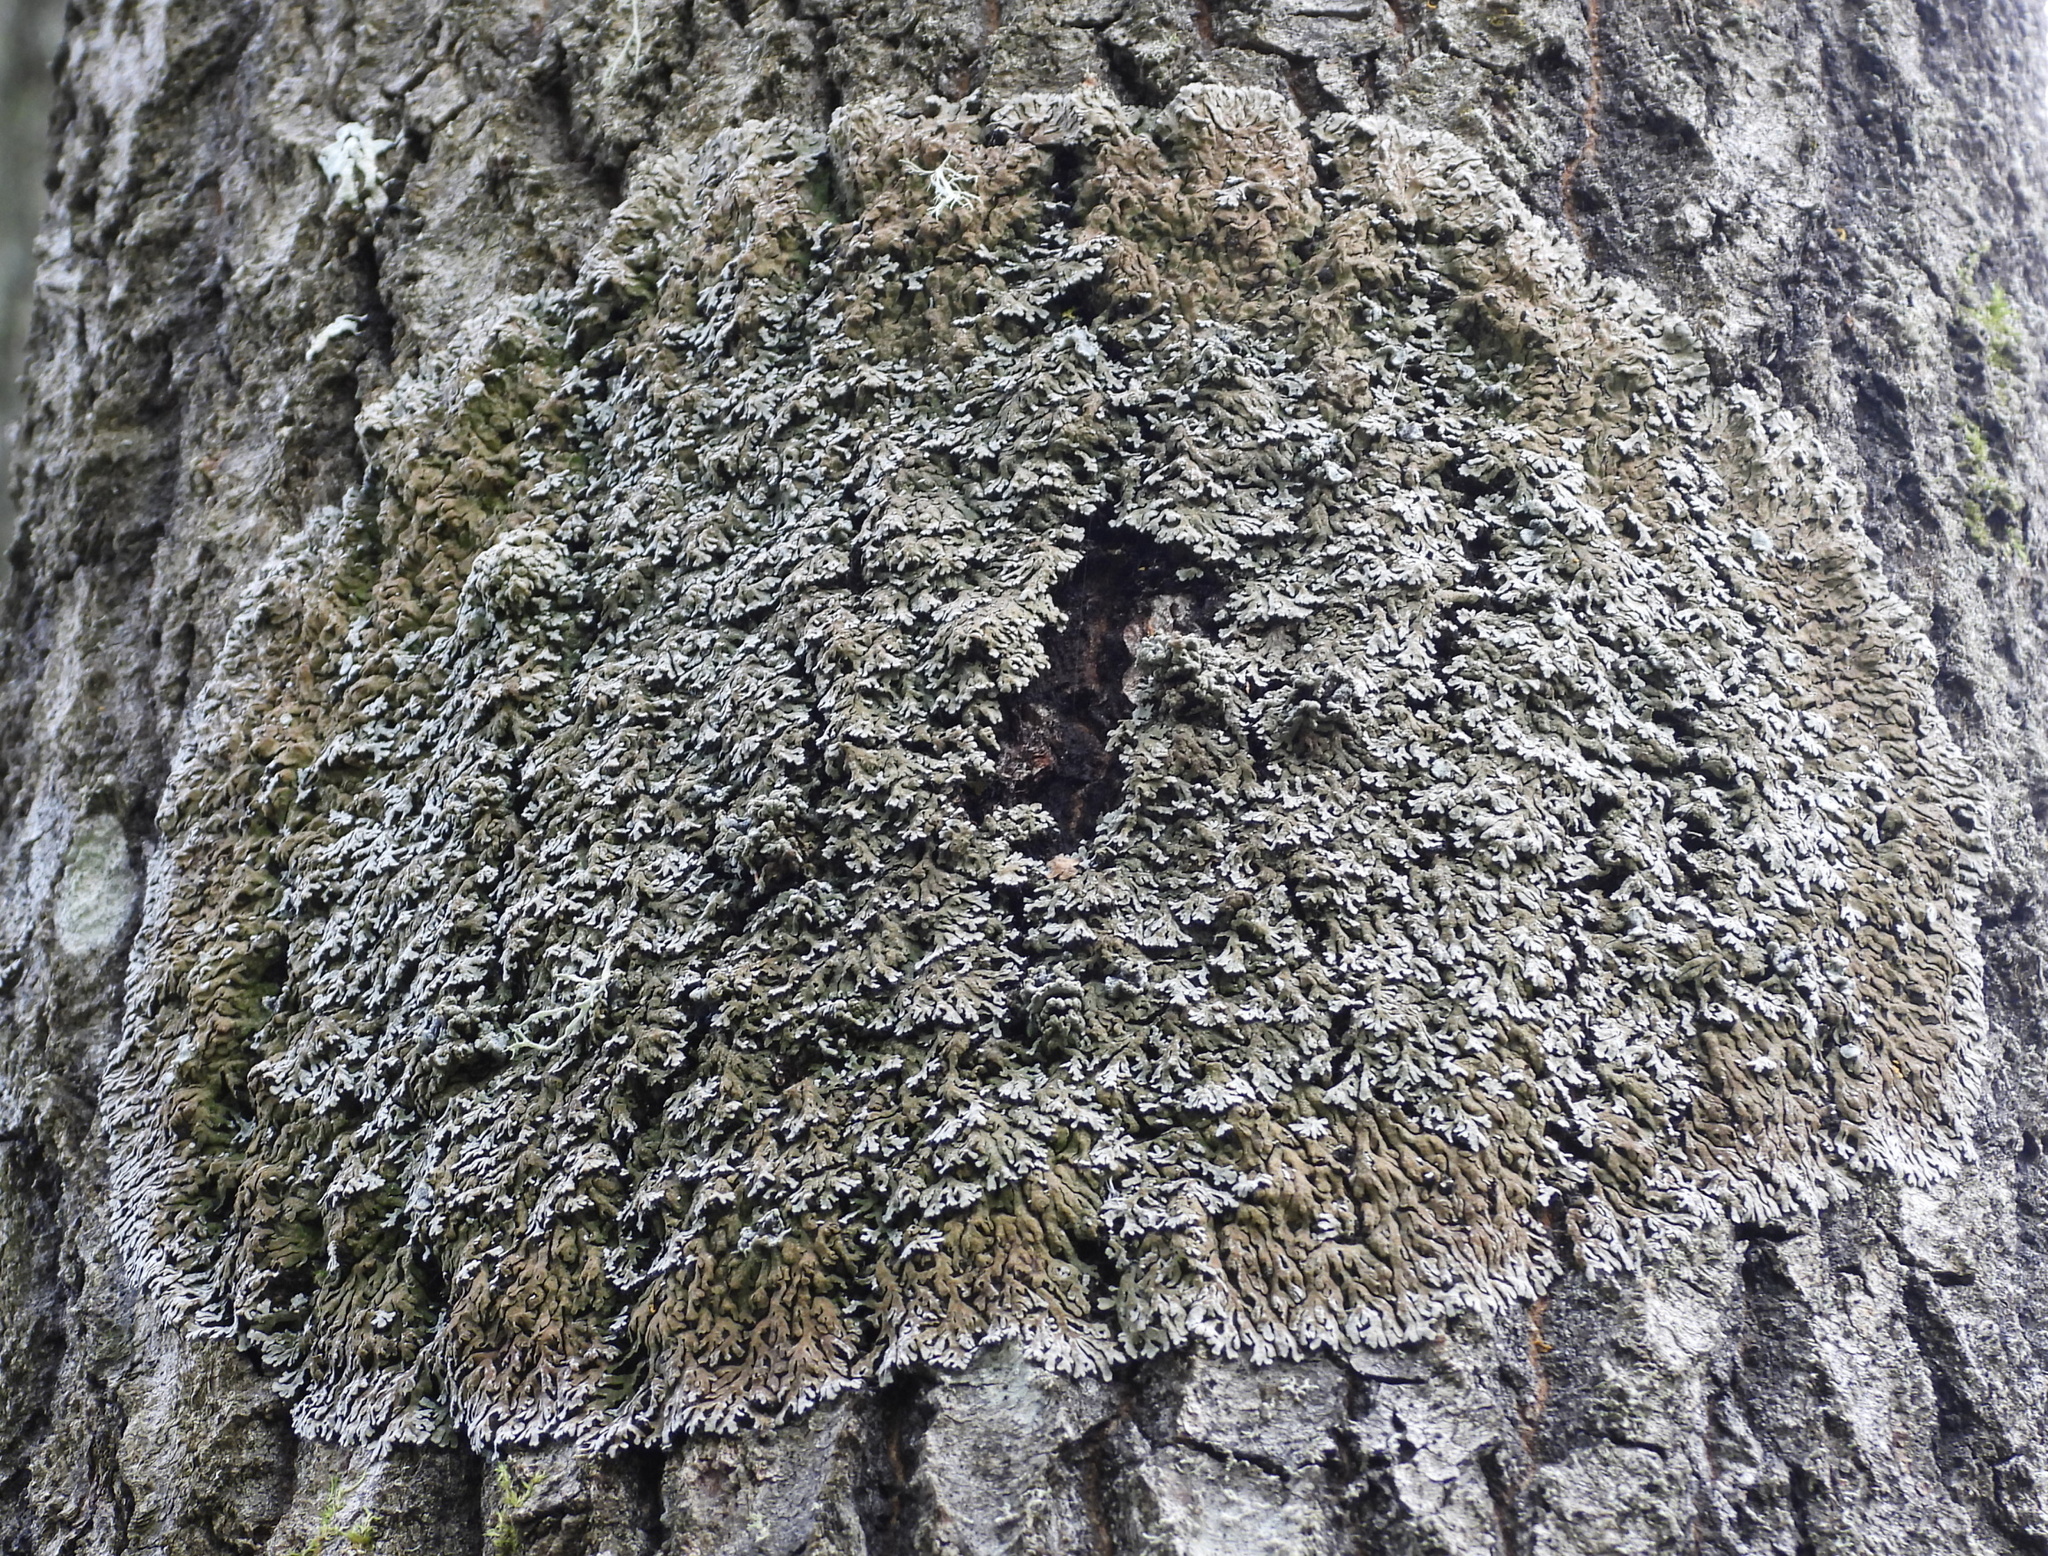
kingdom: Fungi
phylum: Ascomycota
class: Lecanoromycetes
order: Caliciales
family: Physciaceae
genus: Physconia
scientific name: Physconia distorta
